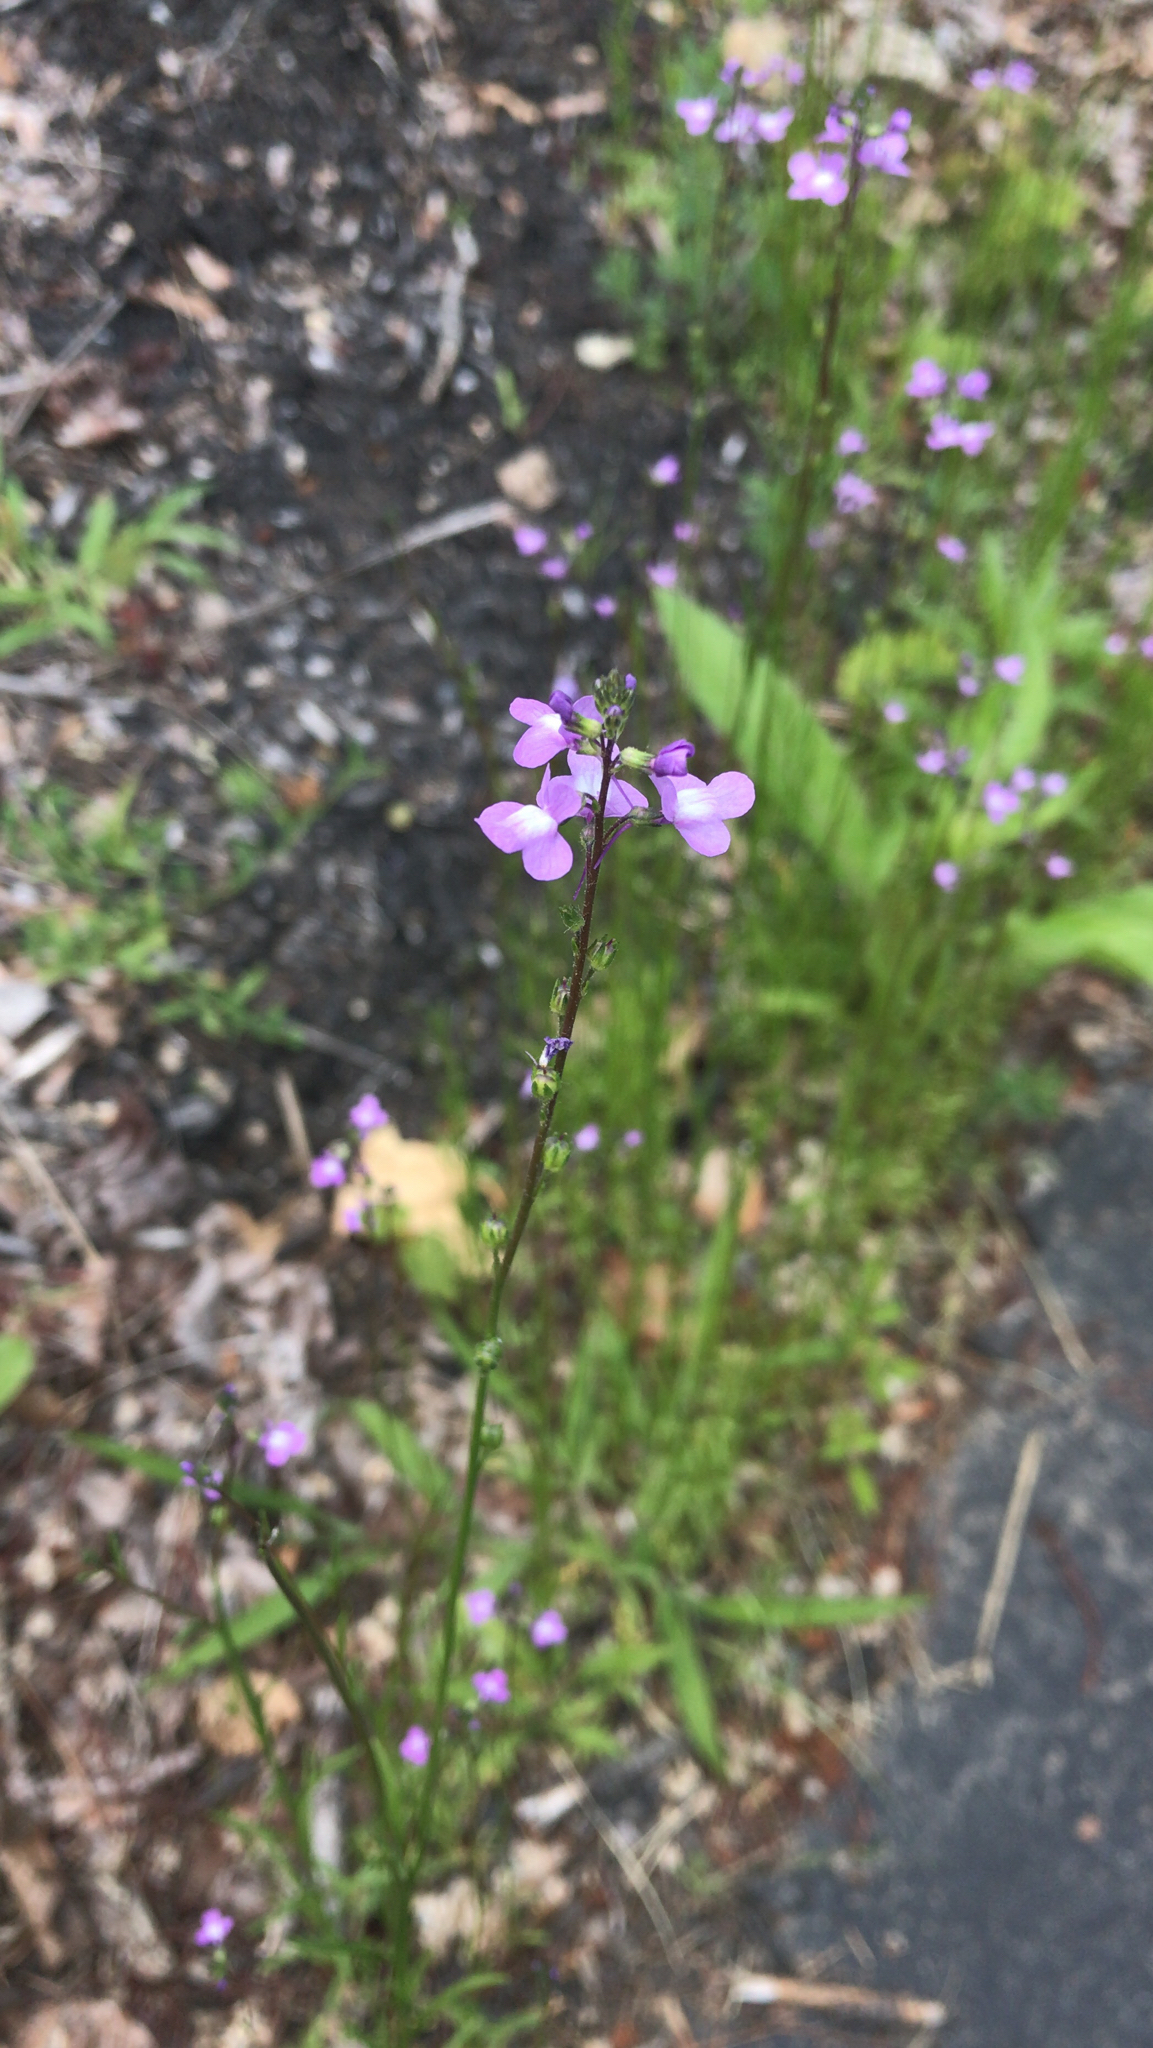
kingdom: Plantae
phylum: Tracheophyta
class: Magnoliopsida
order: Lamiales
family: Plantaginaceae
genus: Nuttallanthus
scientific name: Nuttallanthus canadensis
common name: Blue toadflax
